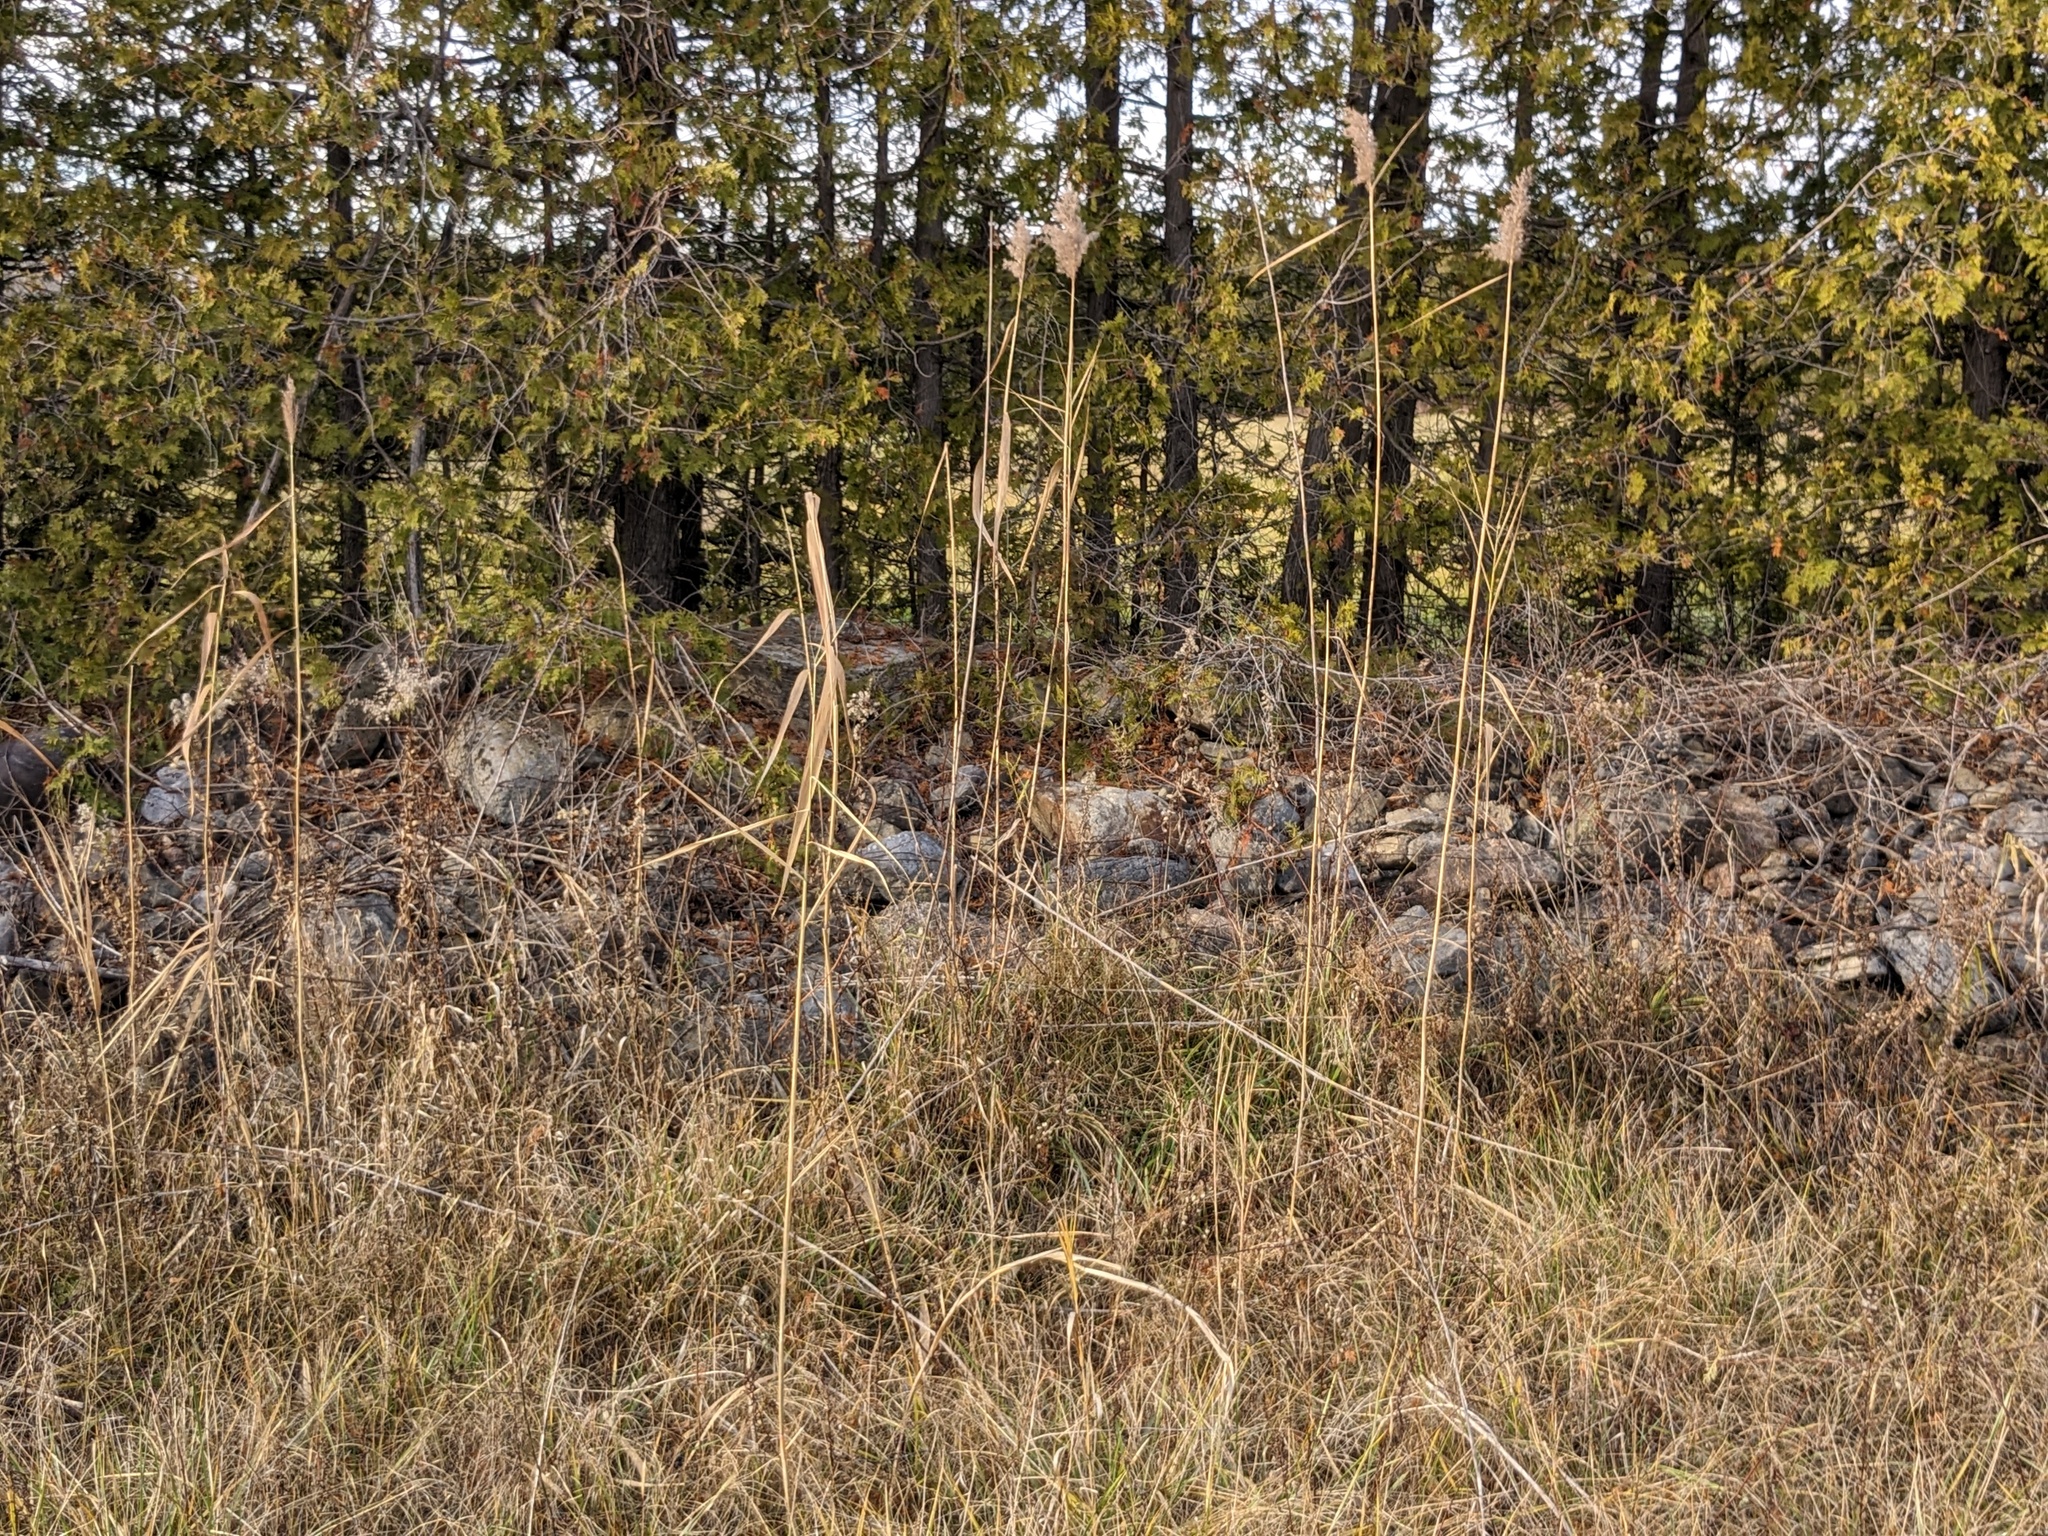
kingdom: Plantae
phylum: Tracheophyta
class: Liliopsida
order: Poales
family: Poaceae
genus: Phragmites
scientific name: Phragmites australis
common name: Common reed
